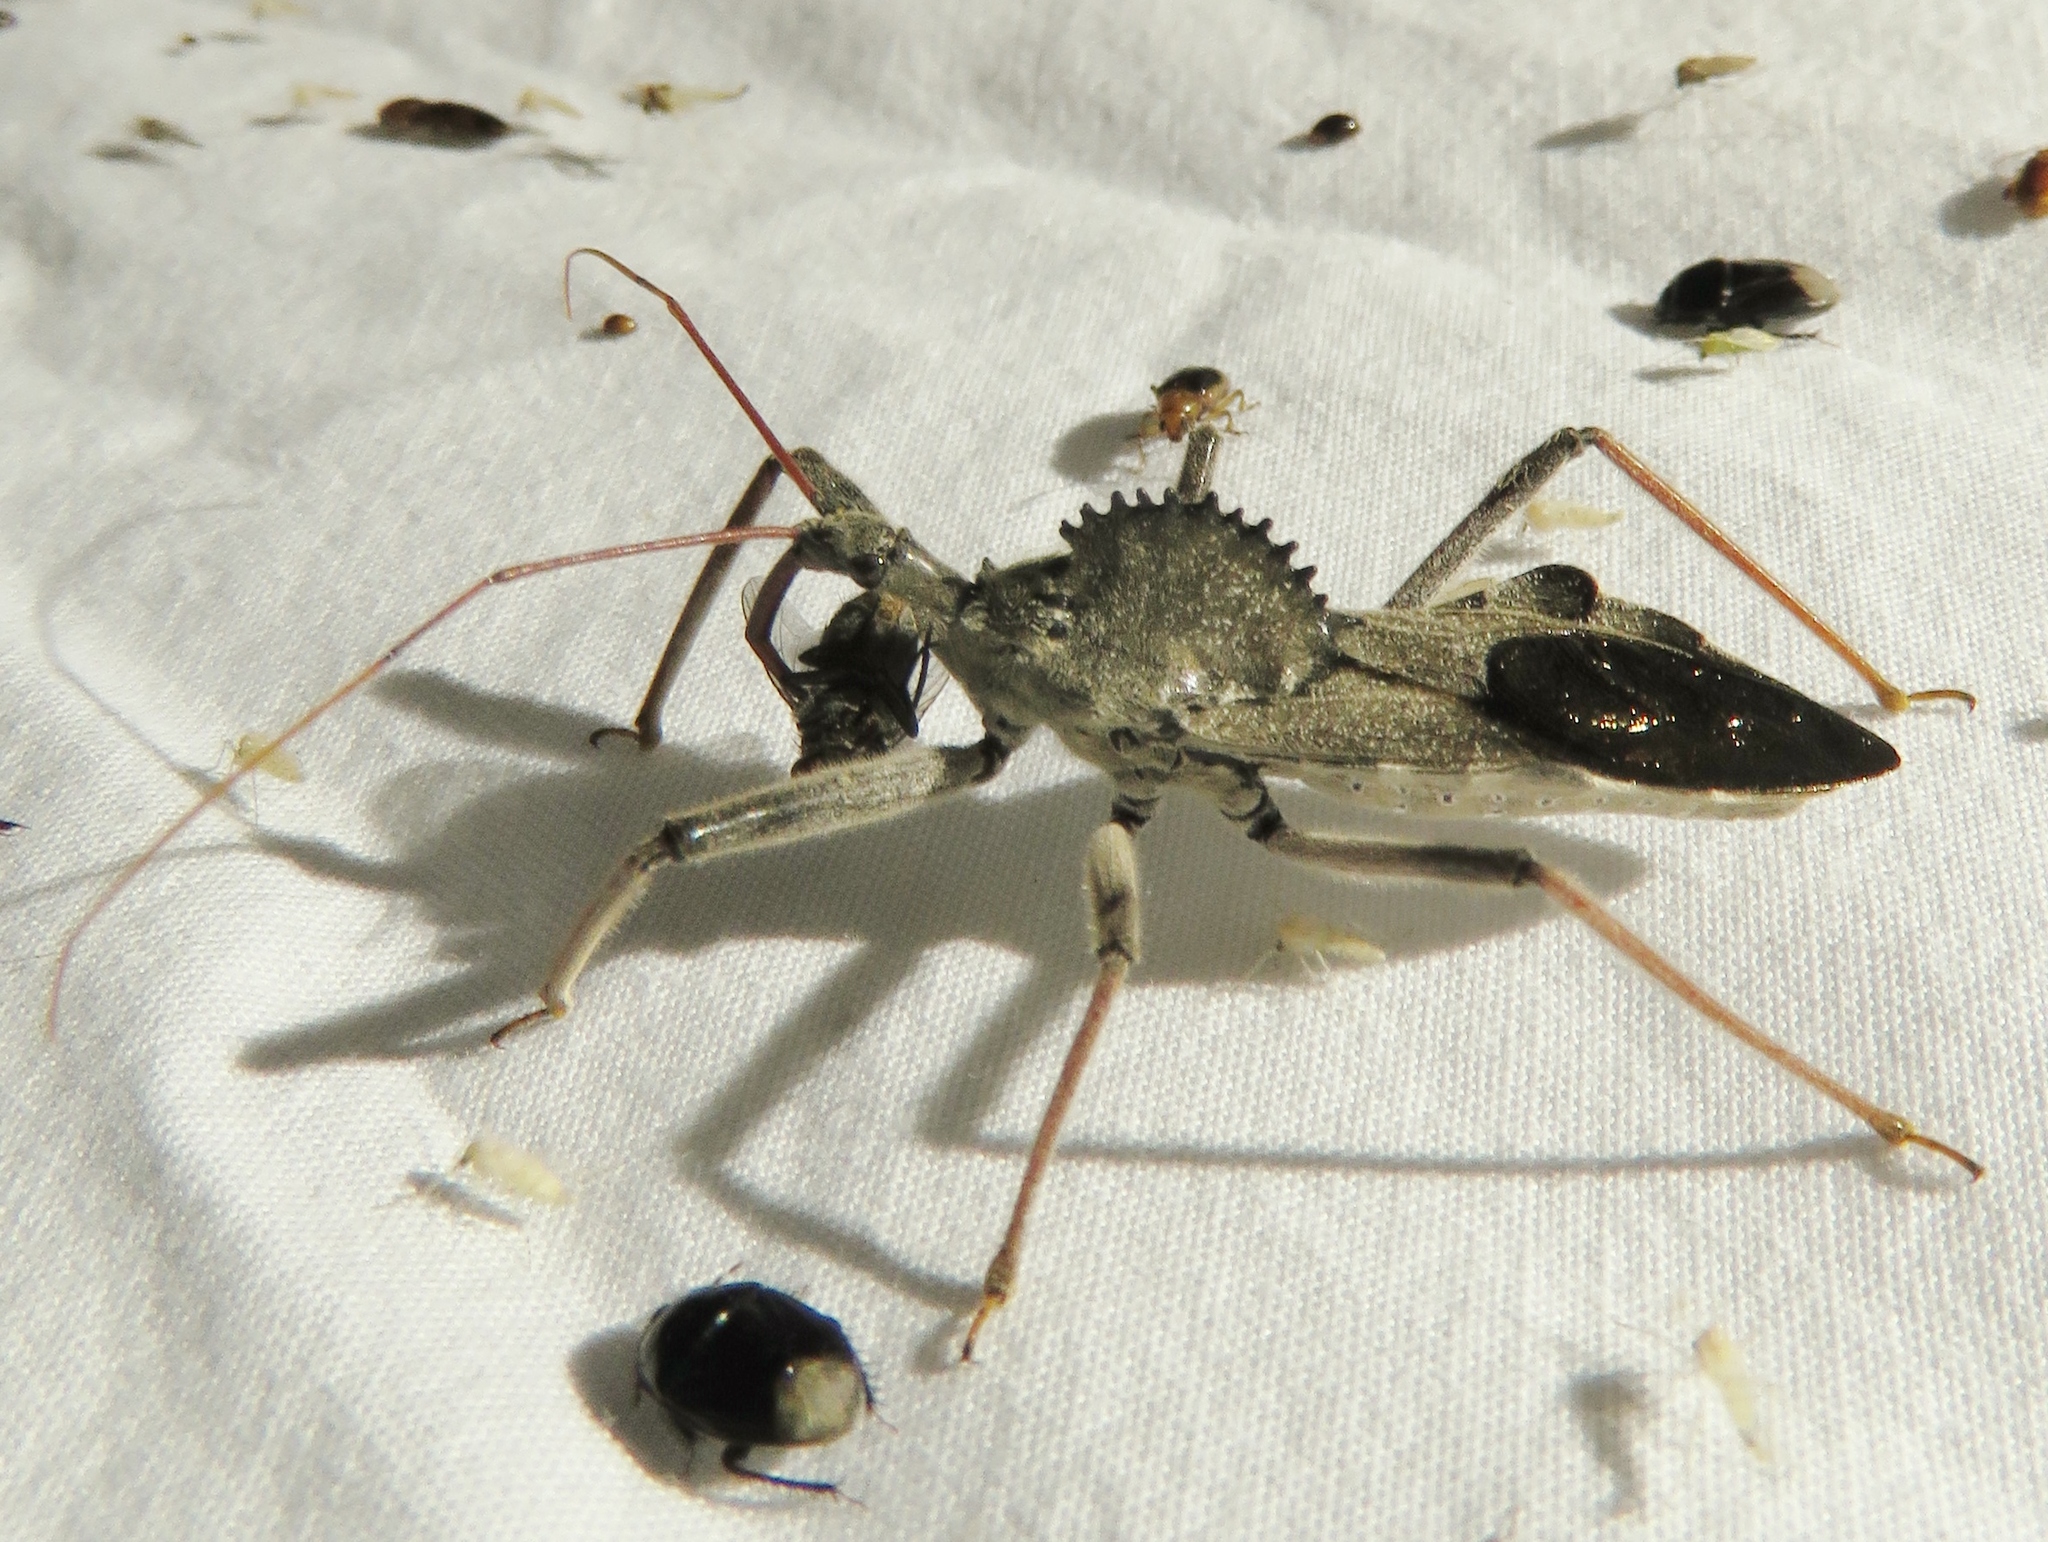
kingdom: Animalia
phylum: Arthropoda
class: Insecta
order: Hemiptera
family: Reduviidae
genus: Arilus
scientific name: Arilus cristatus
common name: North american wheel bug
